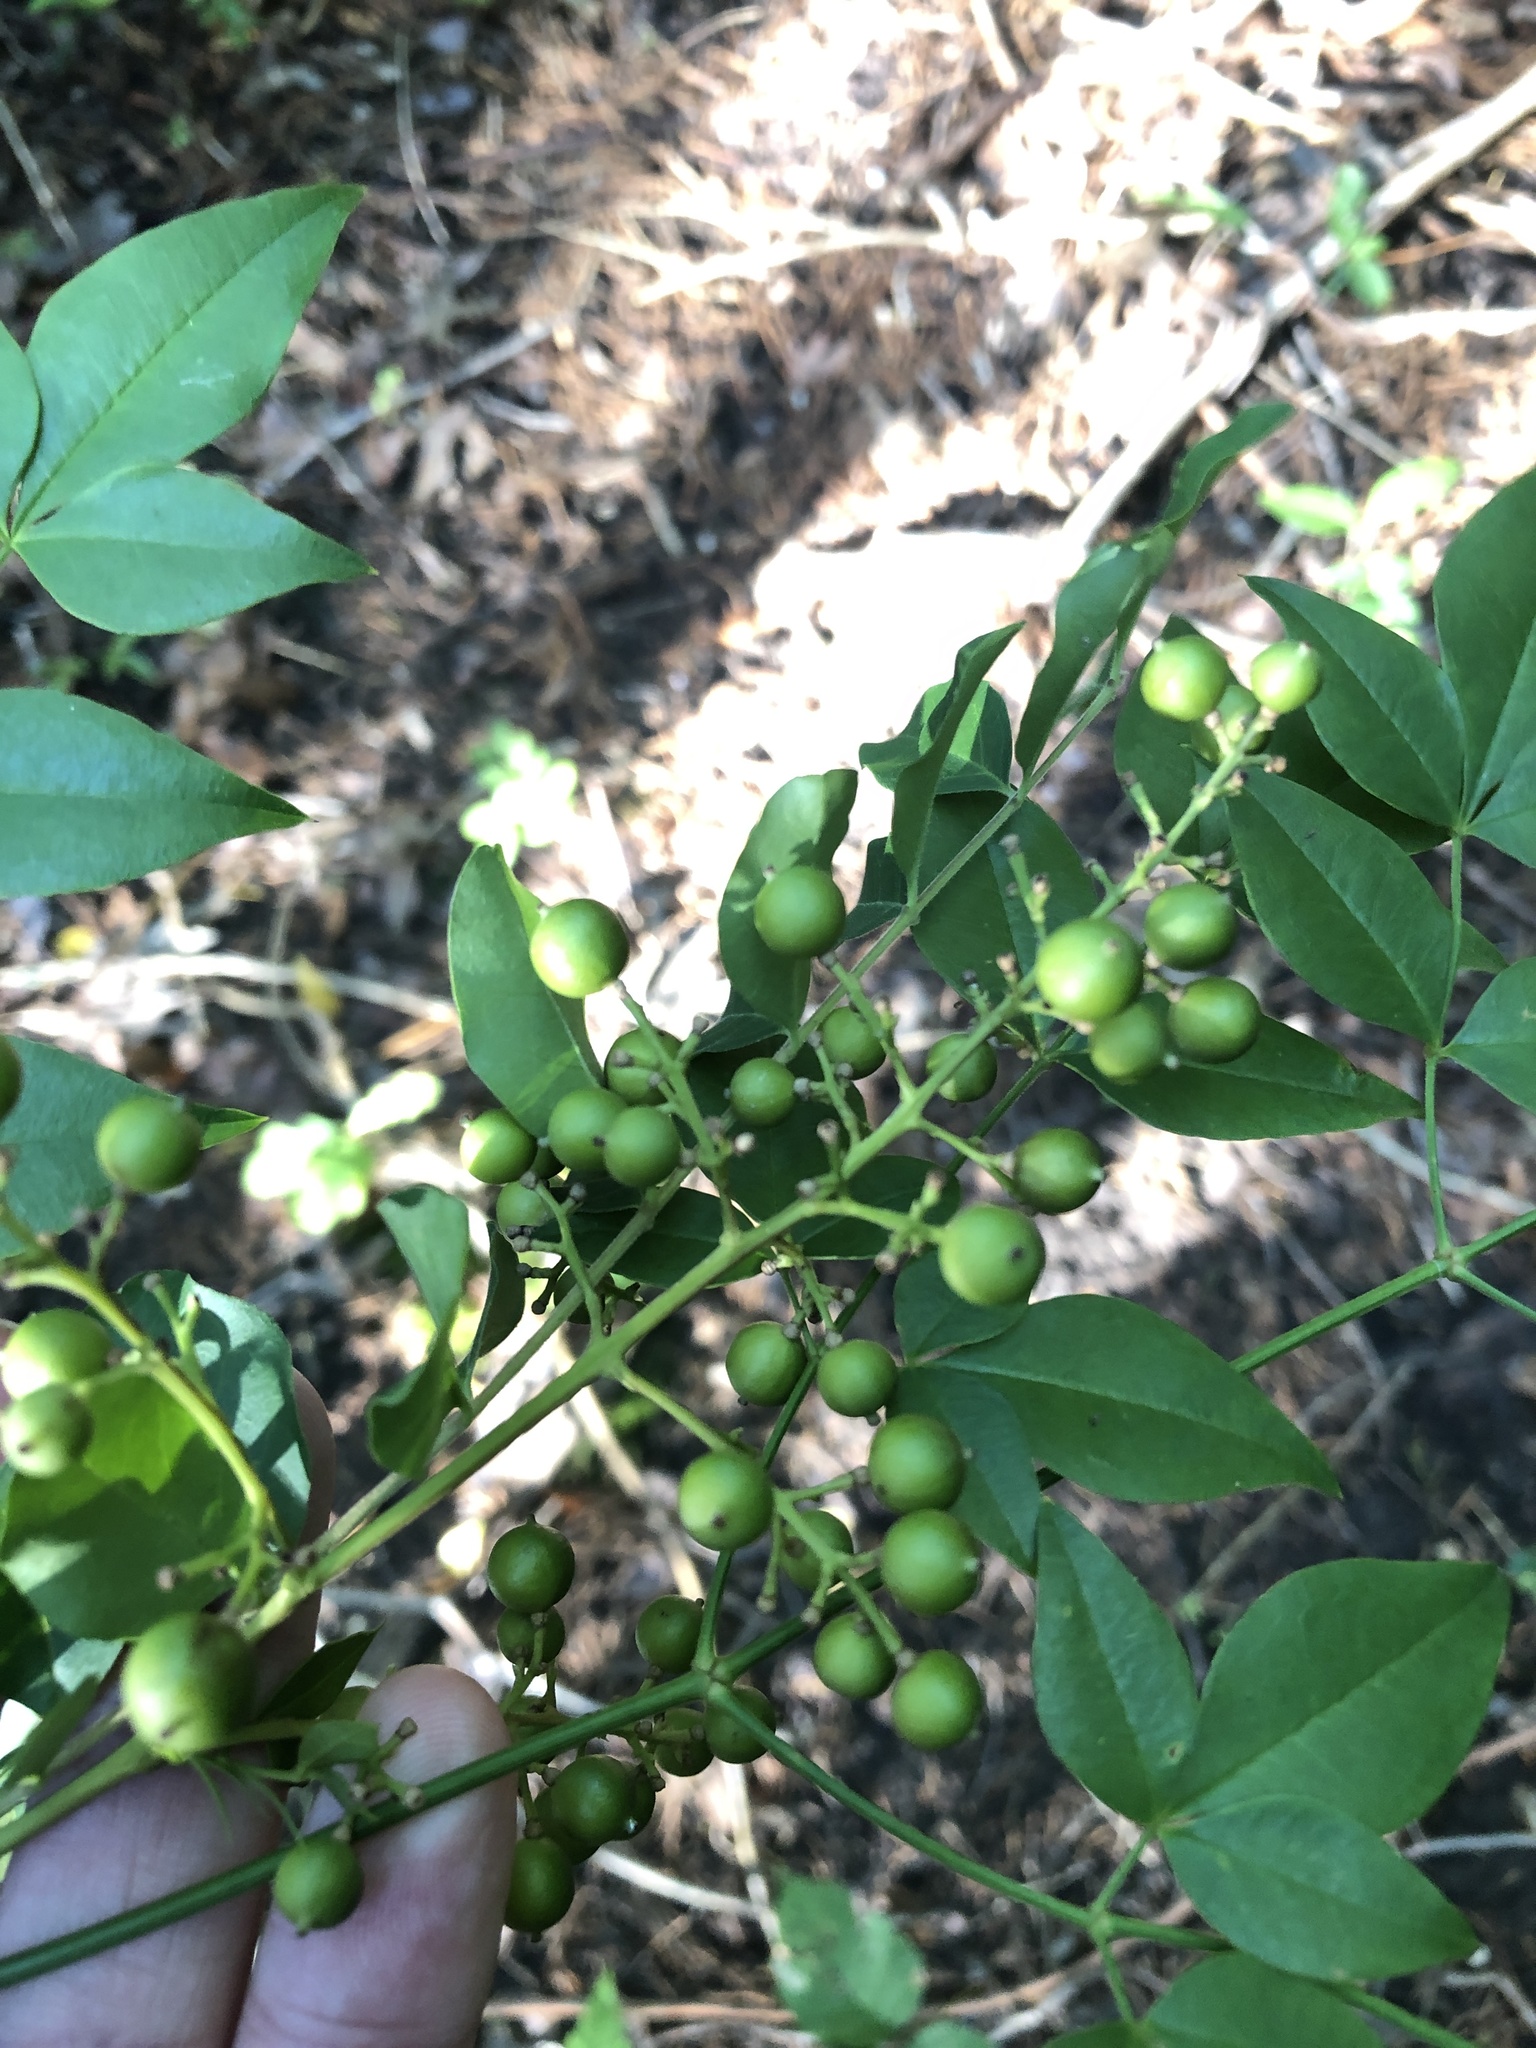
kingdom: Plantae
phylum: Tracheophyta
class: Magnoliopsida
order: Ranunculales
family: Berberidaceae
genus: Nandina
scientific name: Nandina domestica
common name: Sacred bamboo
